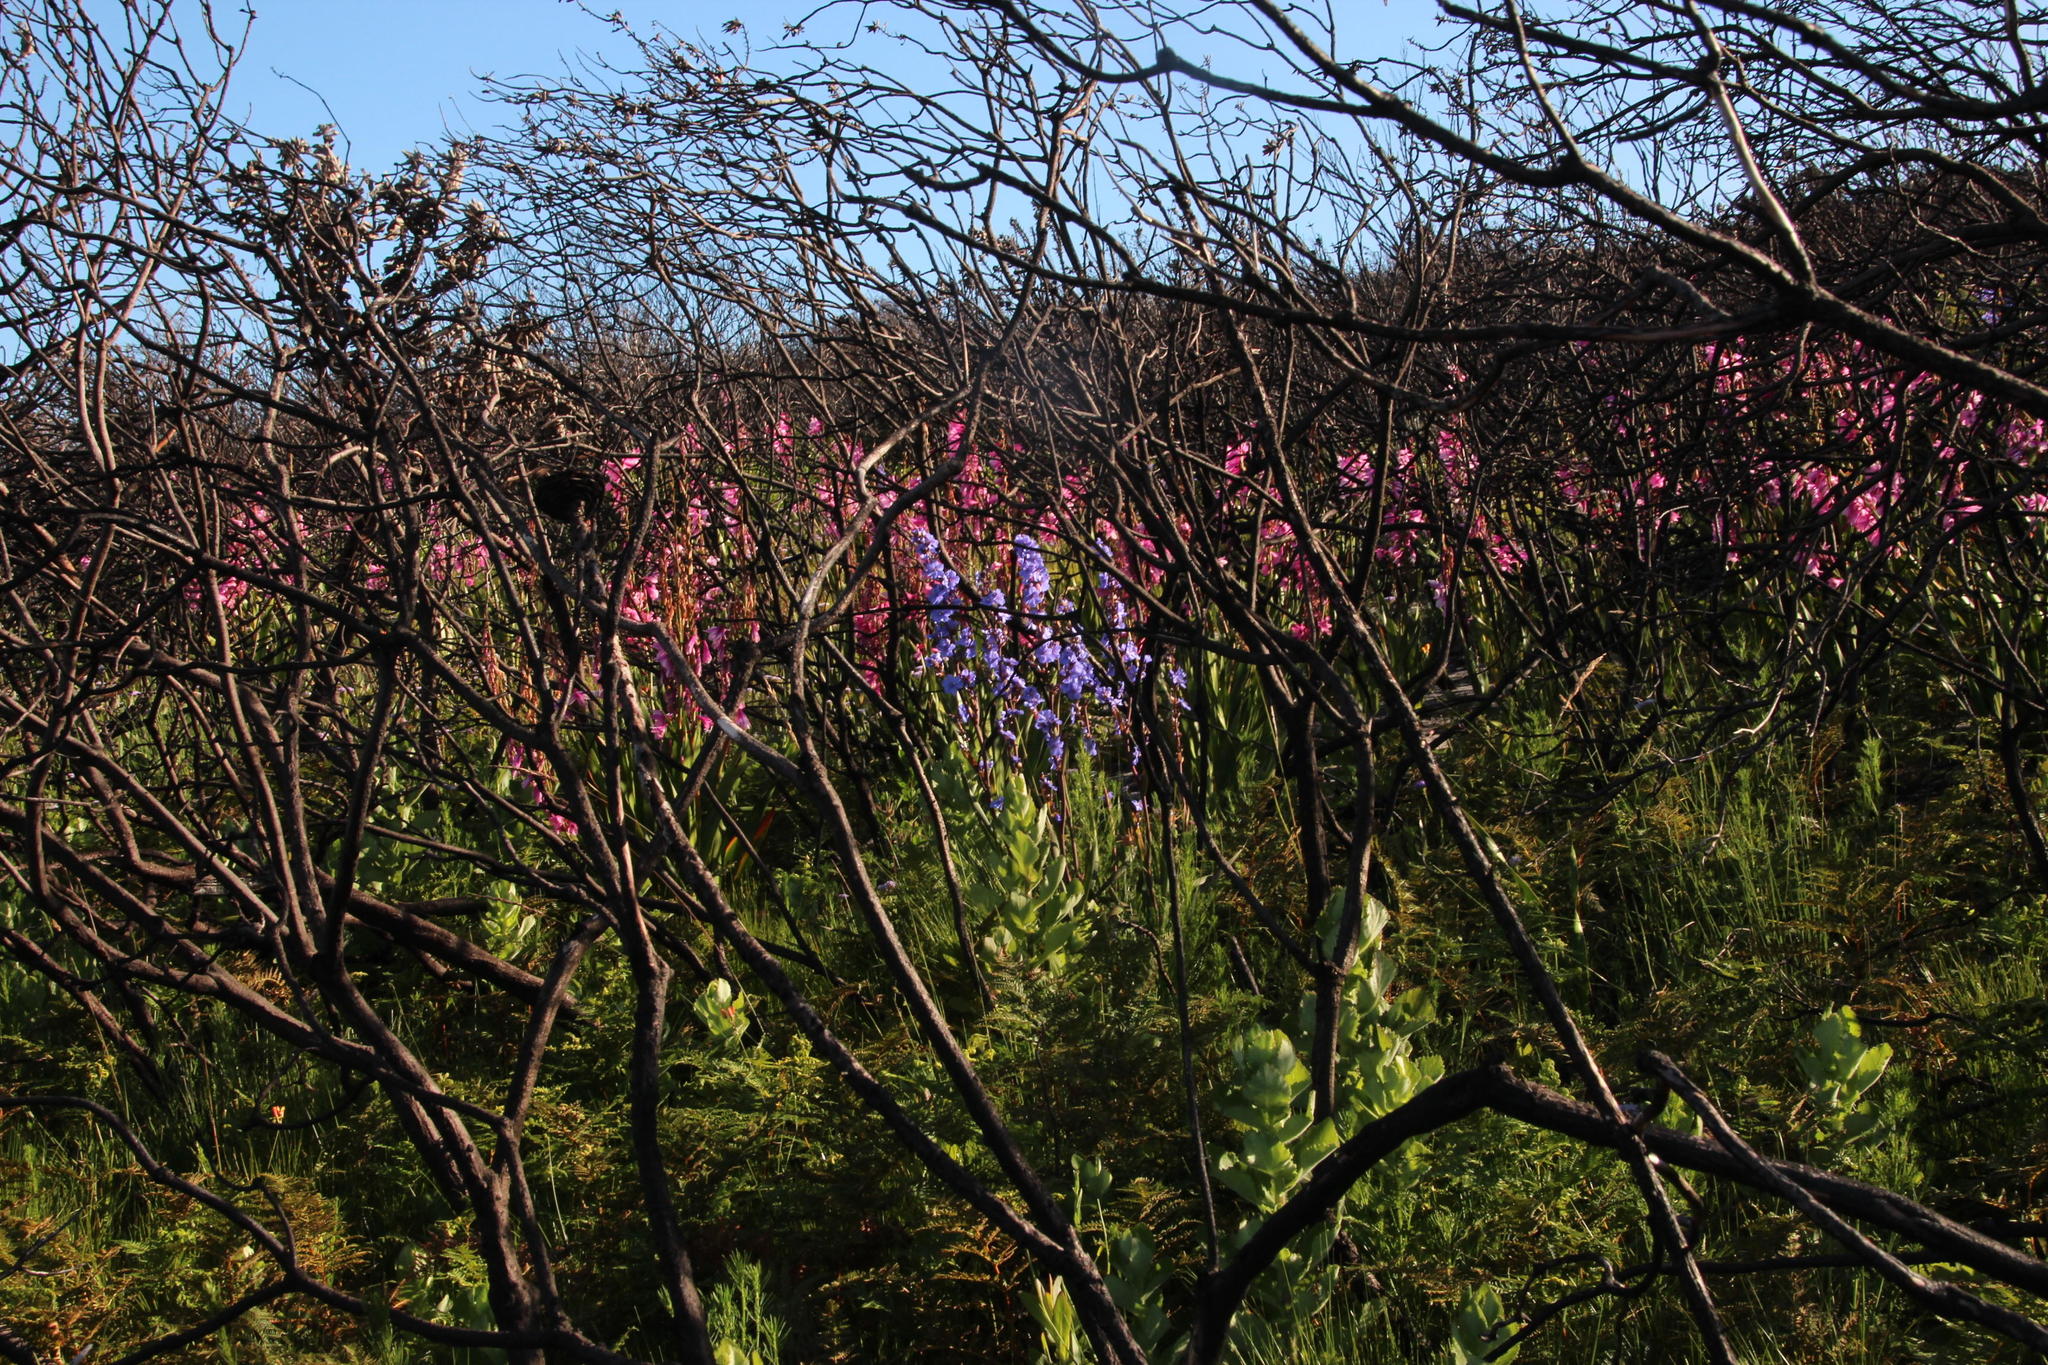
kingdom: Plantae
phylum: Tracheophyta
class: Liliopsida
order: Asparagales
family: Iridaceae
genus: Watsonia
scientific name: Watsonia borbonica
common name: Bugle-lily
